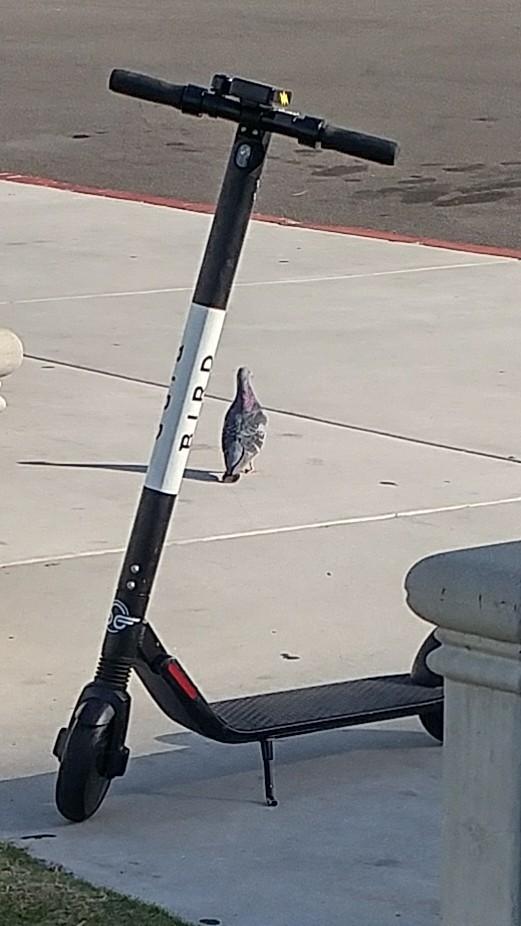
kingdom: Animalia
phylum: Chordata
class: Aves
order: Columbiformes
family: Columbidae
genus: Columba
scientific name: Columba livia
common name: Rock pigeon
